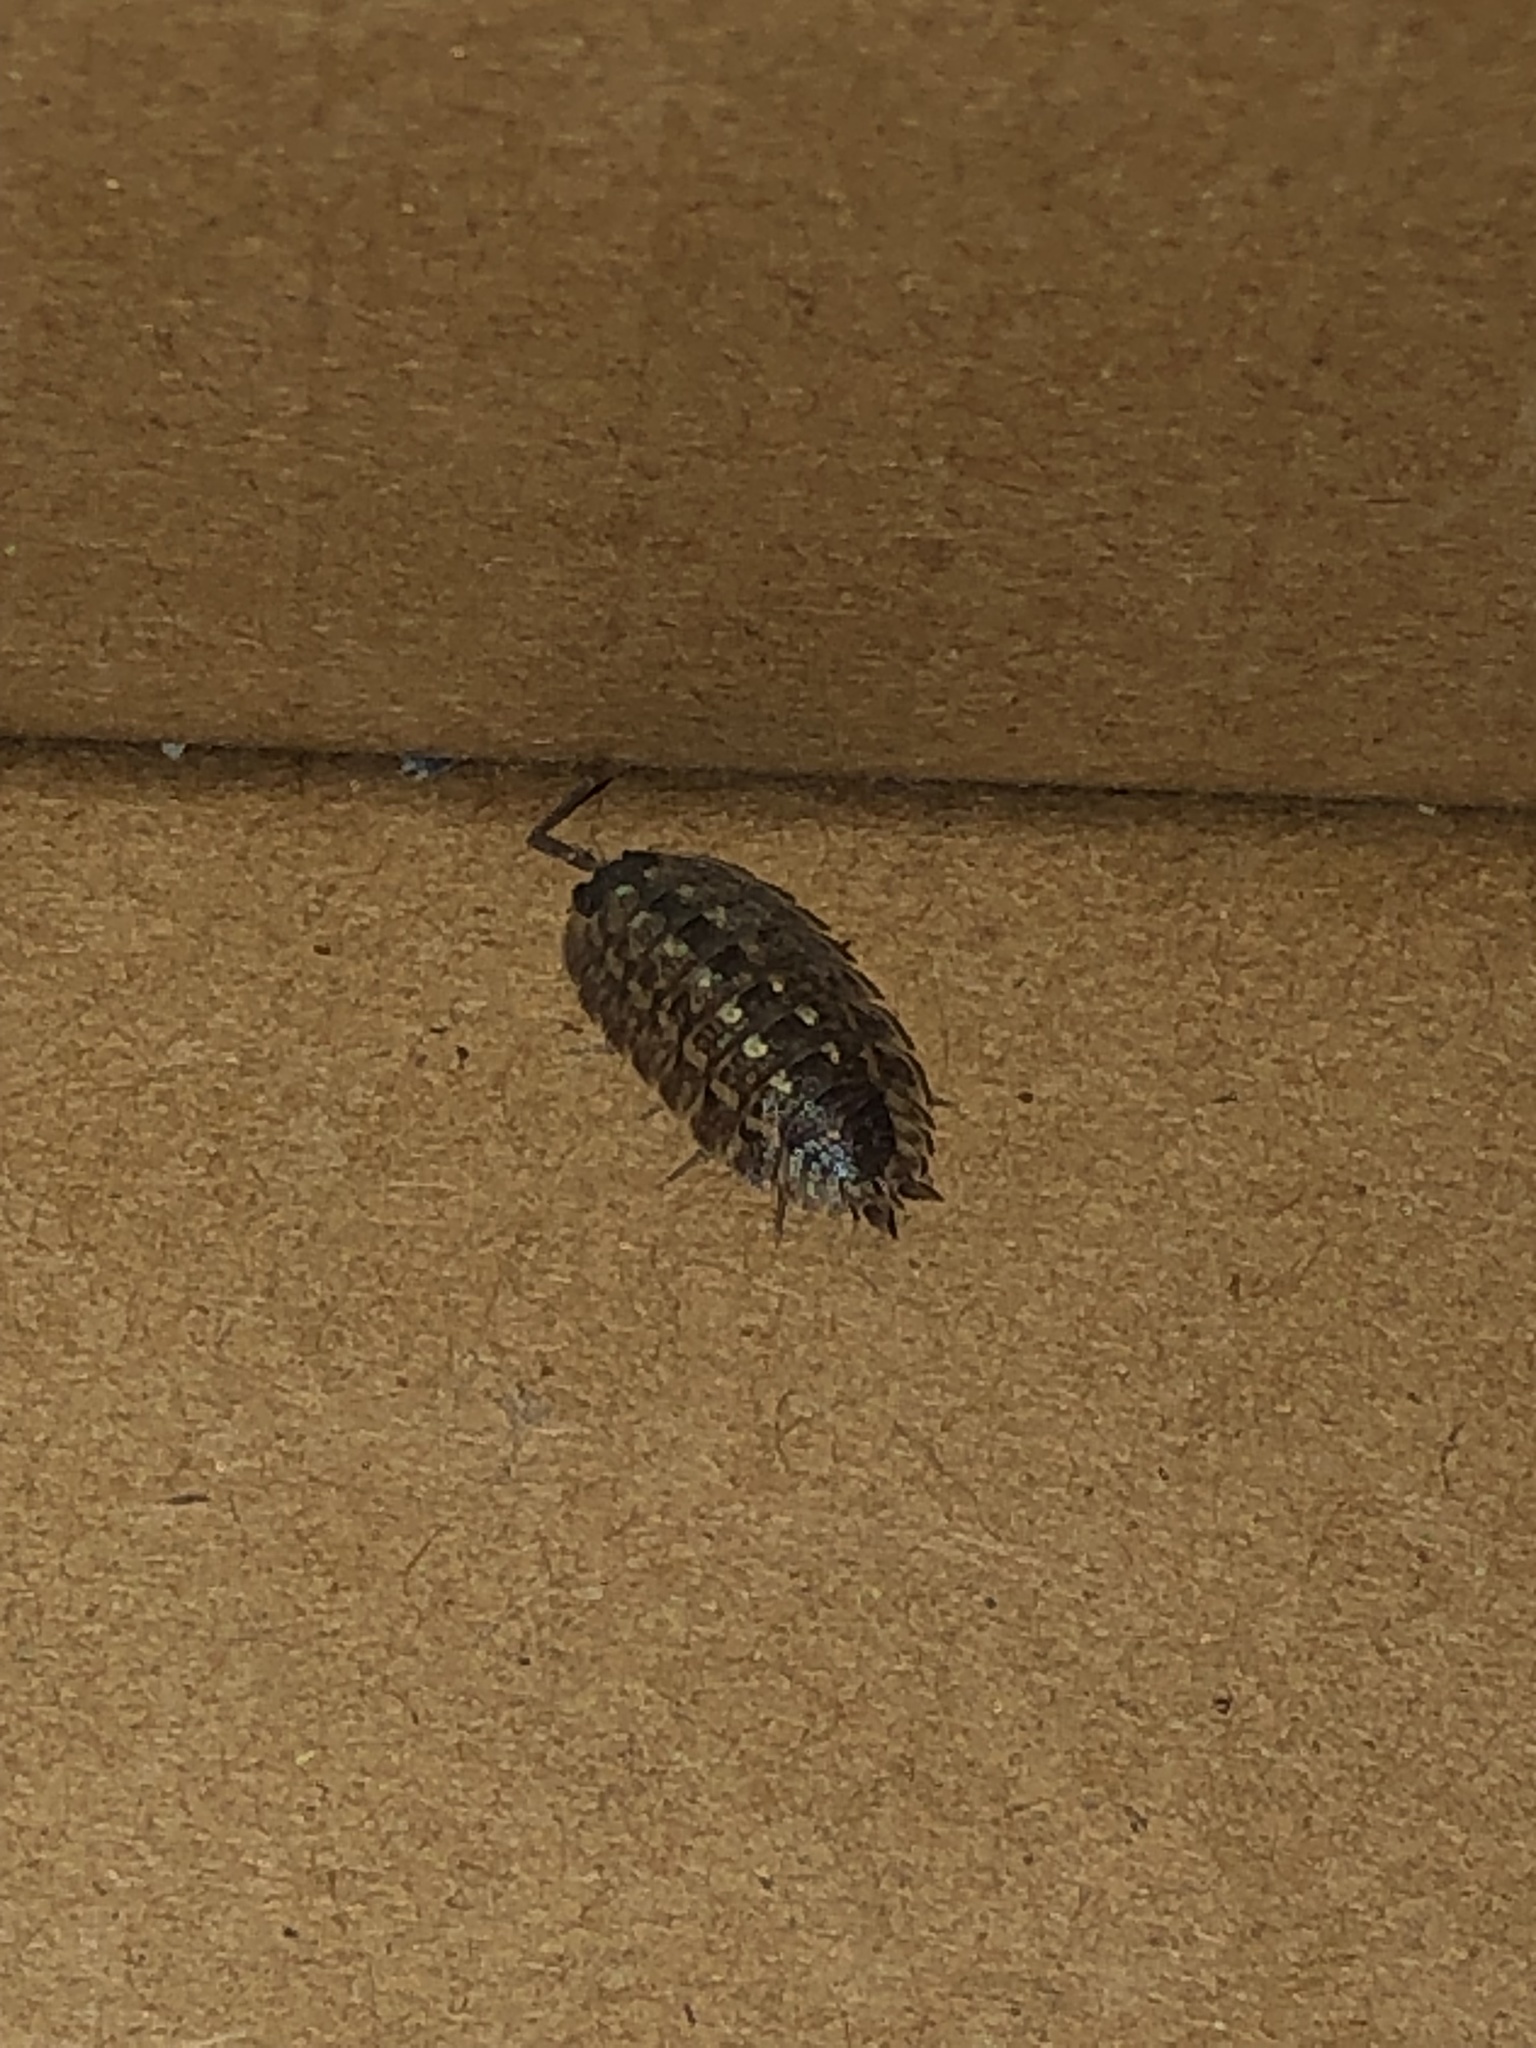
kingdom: Animalia
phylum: Arthropoda
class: Malacostraca
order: Isopoda
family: Porcellionidae
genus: Porcellio
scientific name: Porcellio spinicornis
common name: Painted woodlouse
